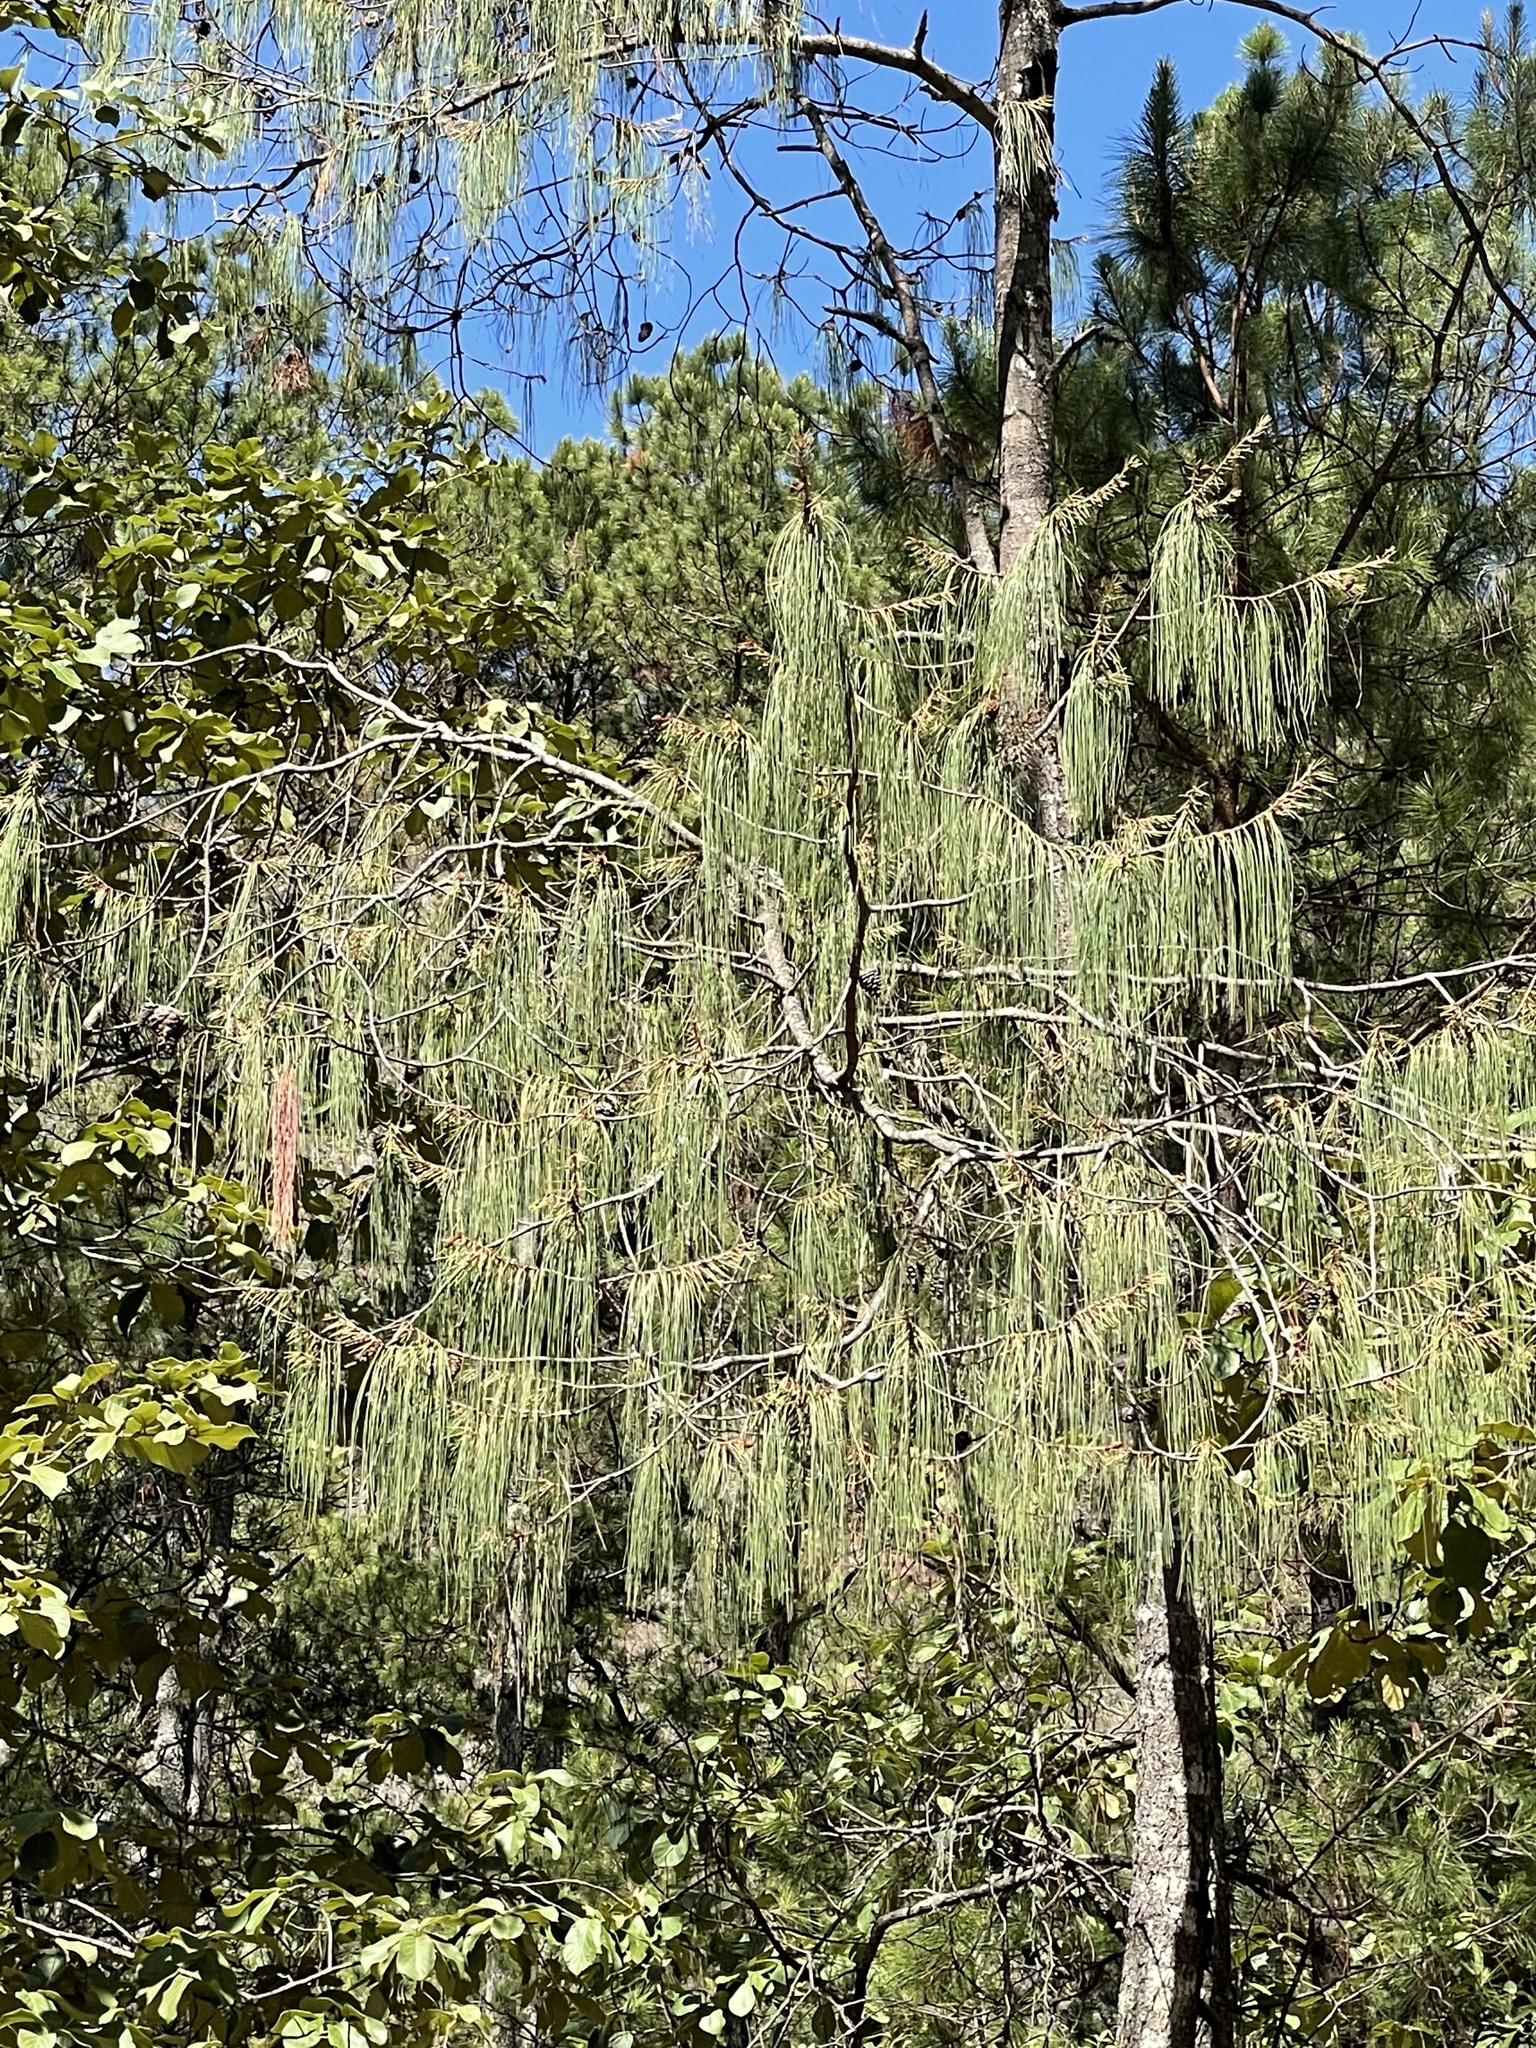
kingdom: Plantae
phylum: Tracheophyta
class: Pinopsida
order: Pinales
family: Pinaceae
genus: Pinus
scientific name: Pinus lumholtzii
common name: Lumholtz's pine
